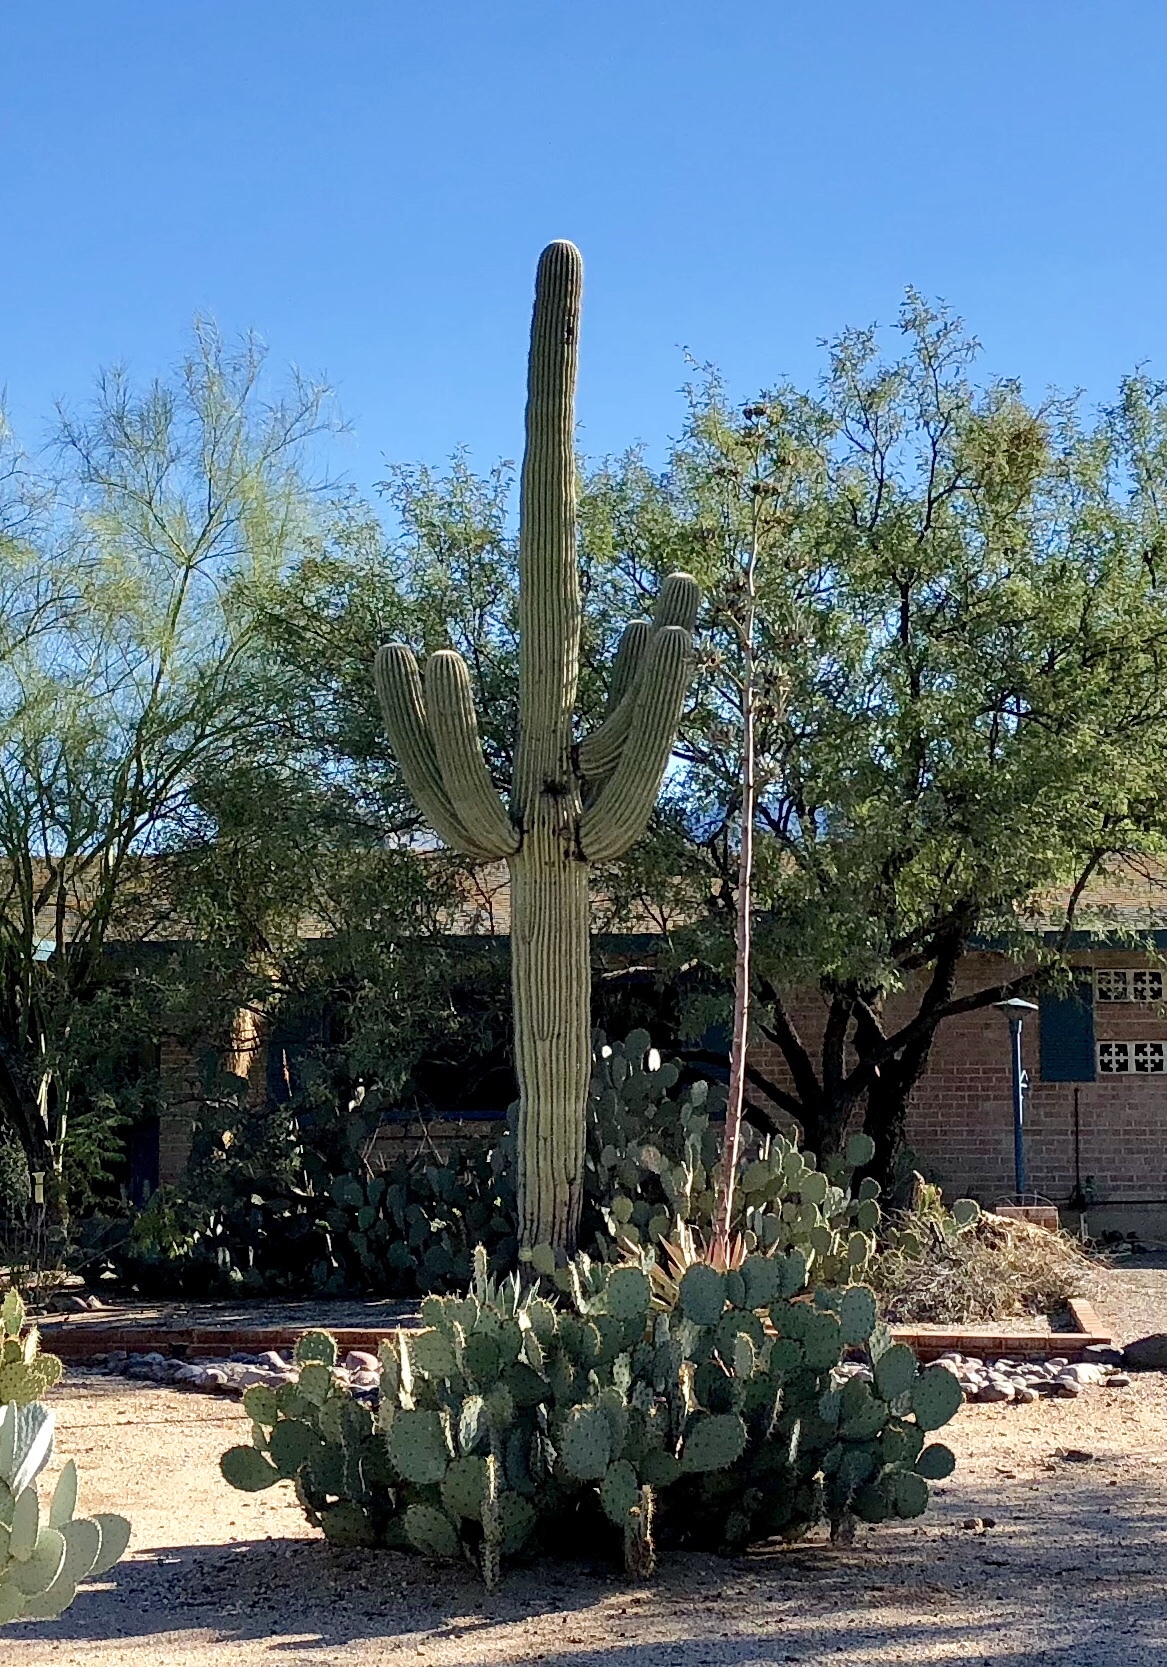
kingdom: Plantae
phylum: Tracheophyta
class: Magnoliopsida
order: Caryophyllales
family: Cactaceae
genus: Carnegiea
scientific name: Carnegiea gigantea
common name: Saguaro
